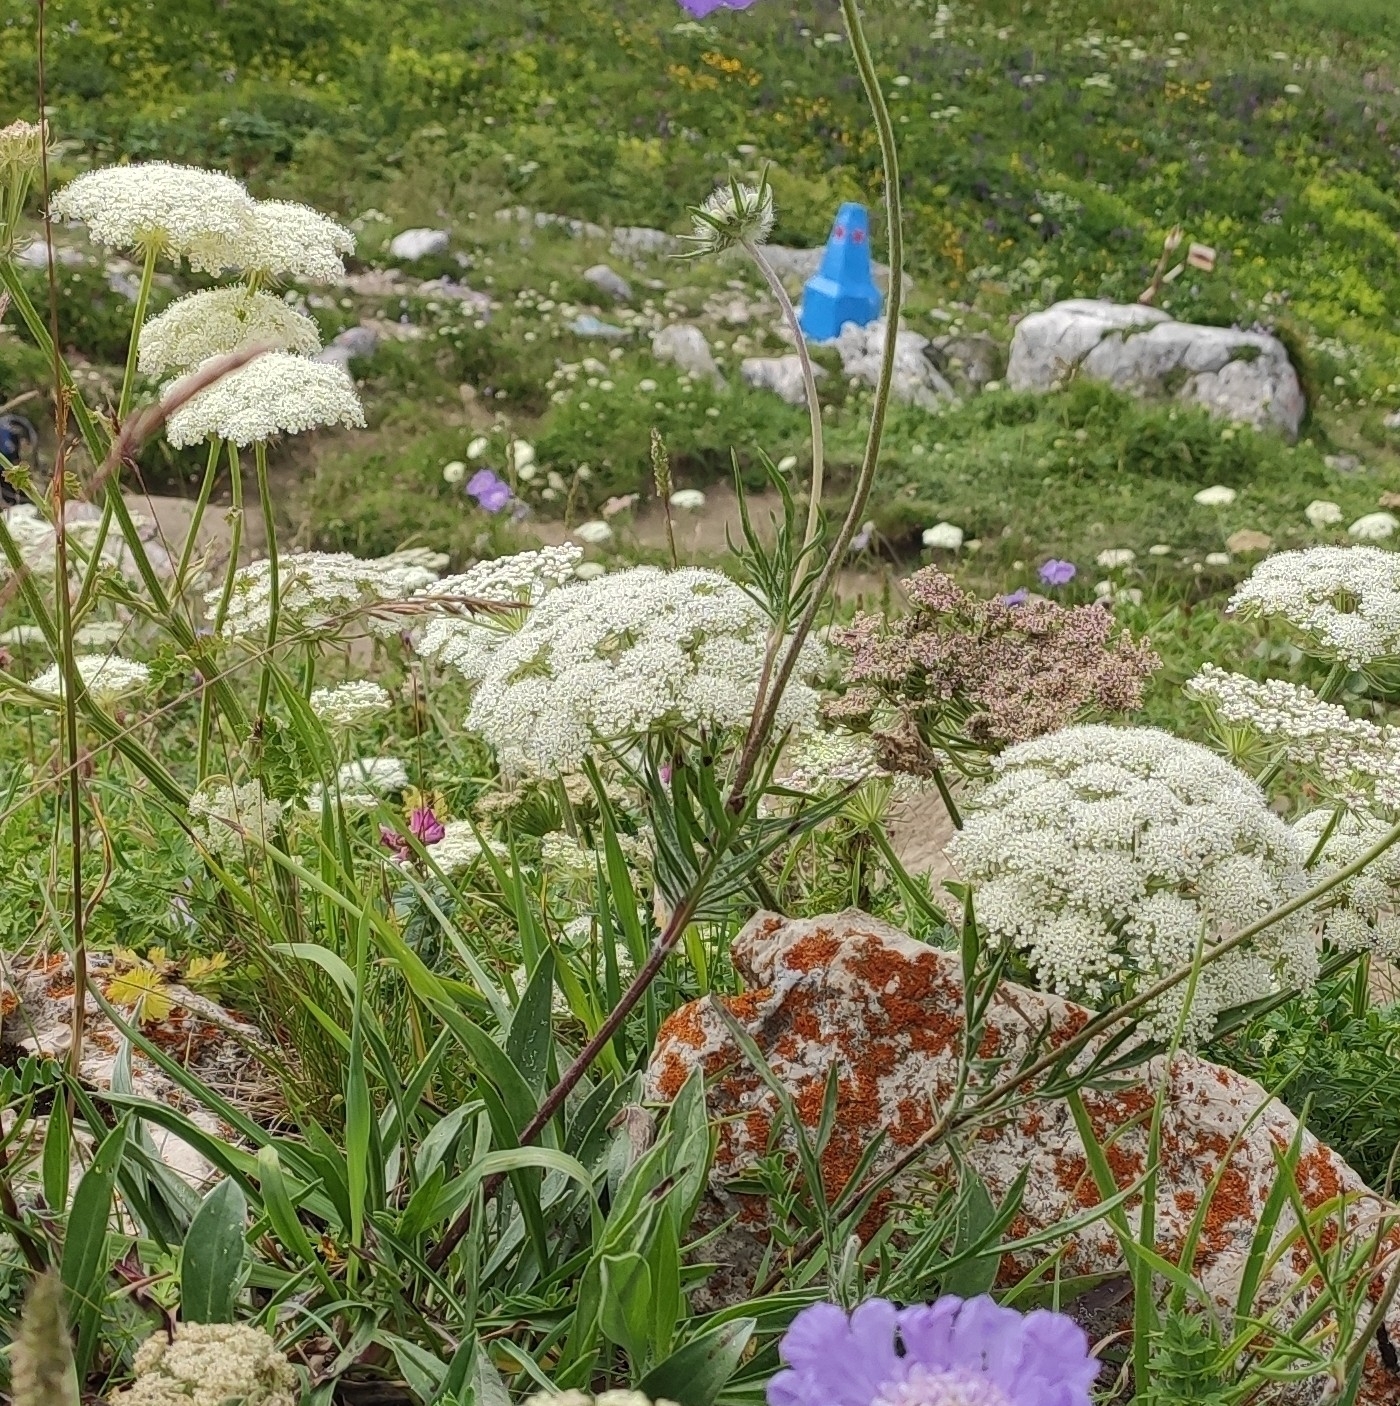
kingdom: Plantae
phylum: Tracheophyta
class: Magnoliopsida
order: Apiales
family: Apiaceae
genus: Seseli
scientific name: Seseli libanotis
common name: Mooncarrot
